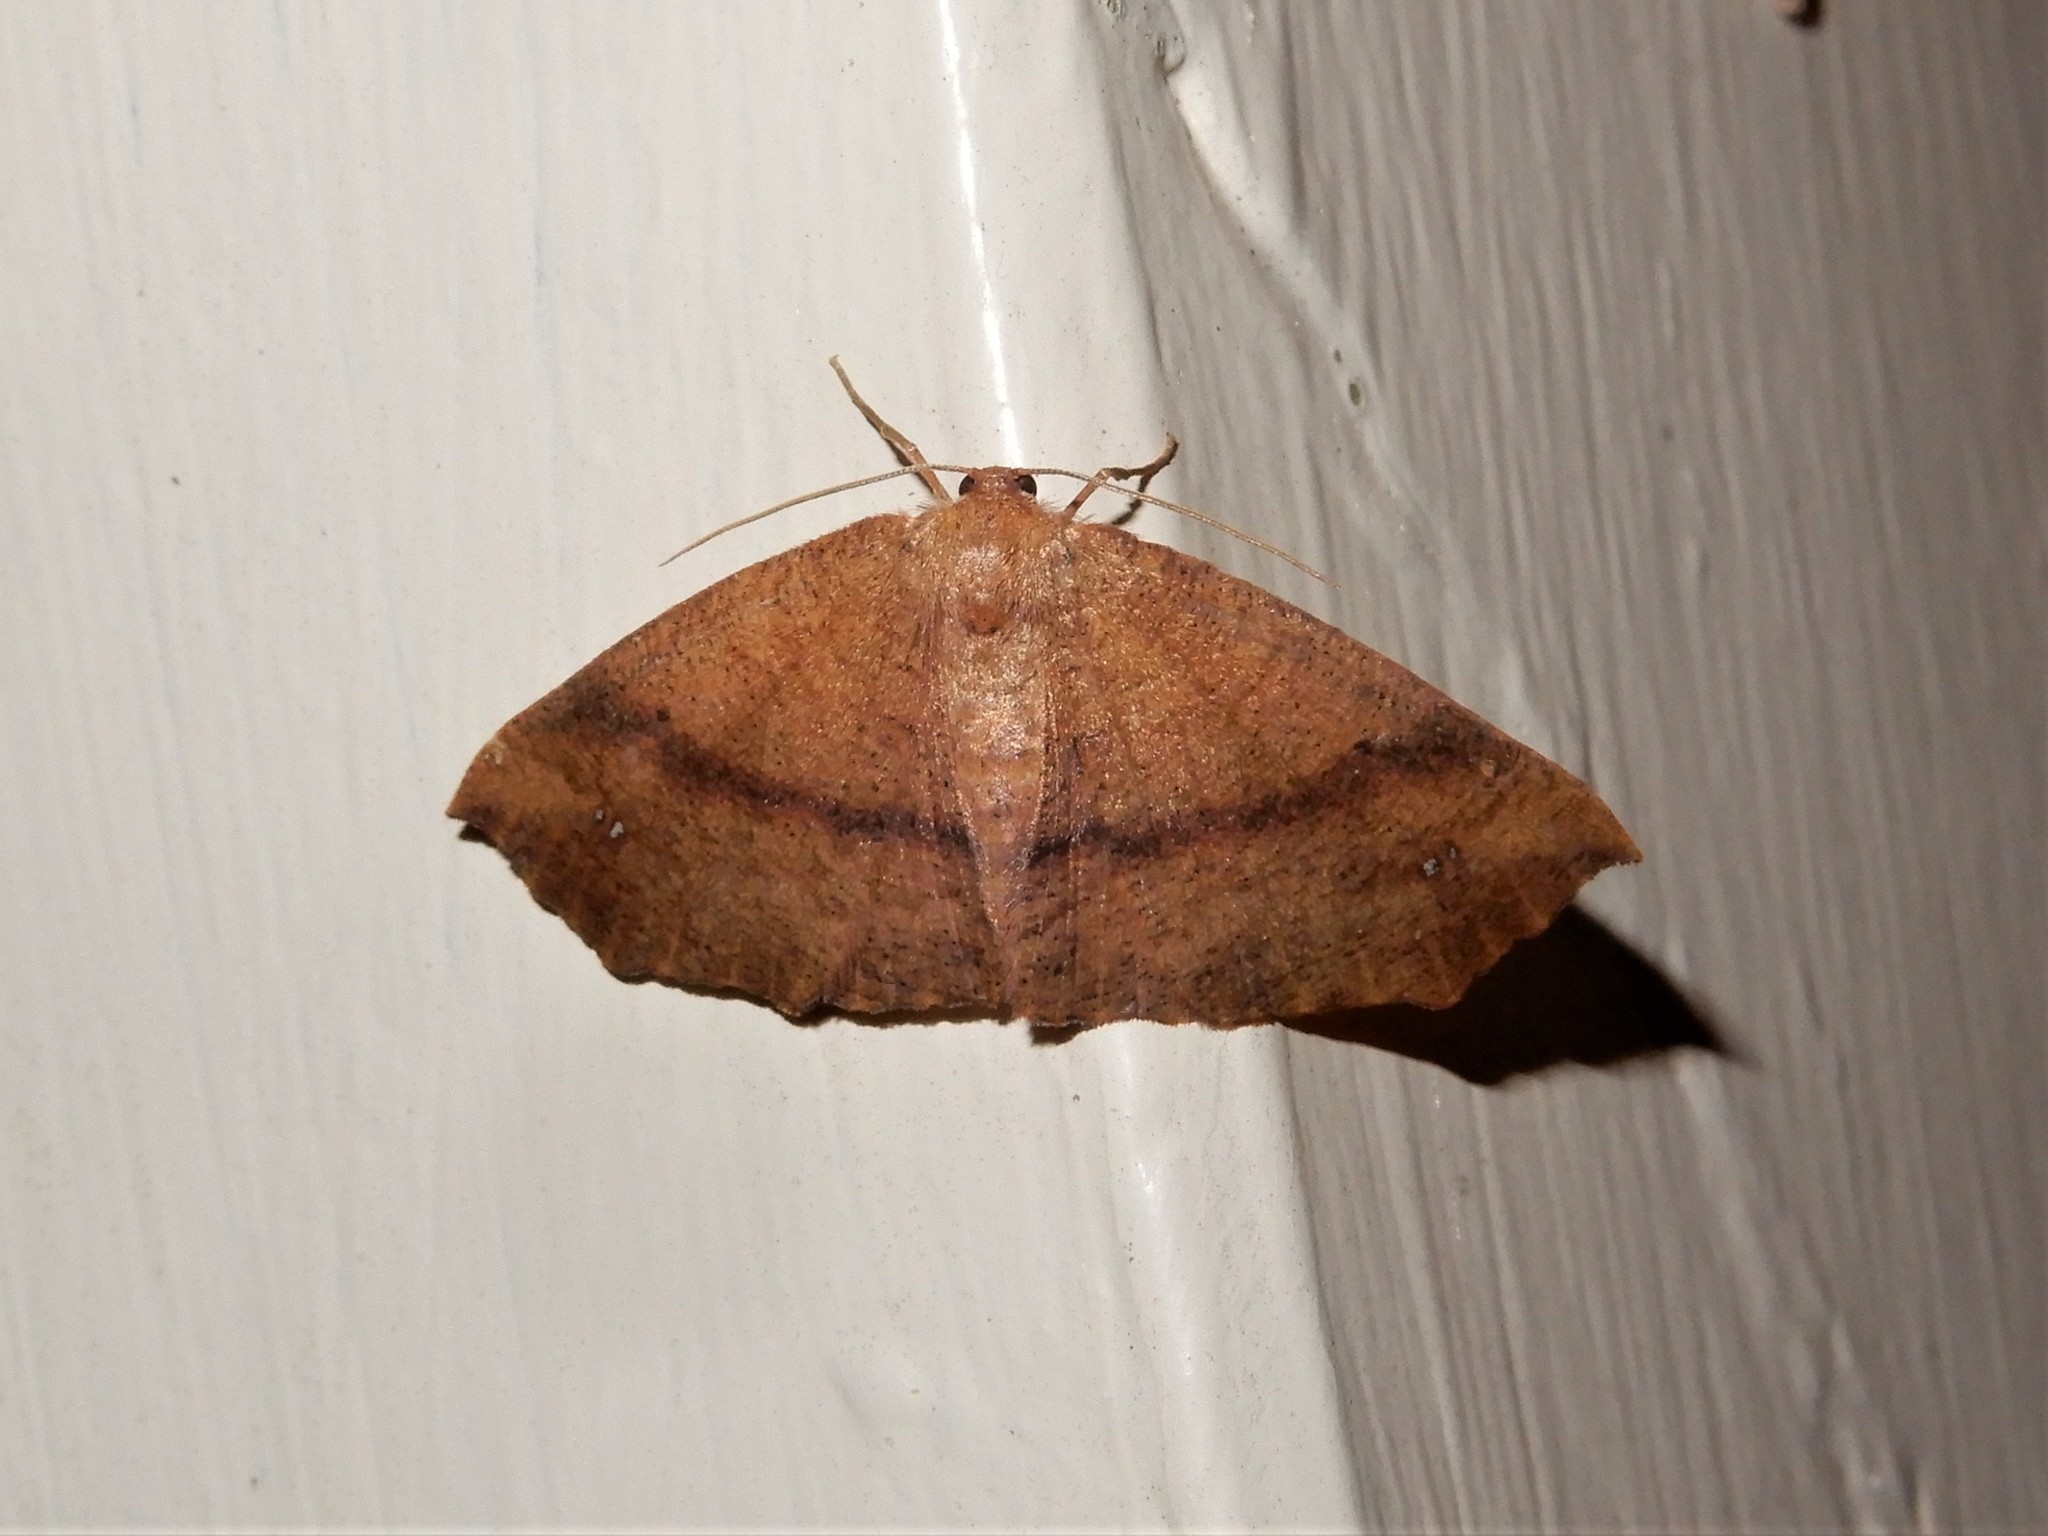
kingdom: Animalia
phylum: Arthropoda
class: Insecta
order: Lepidoptera
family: Geometridae
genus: Xyridacma
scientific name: Xyridacma ustaria
